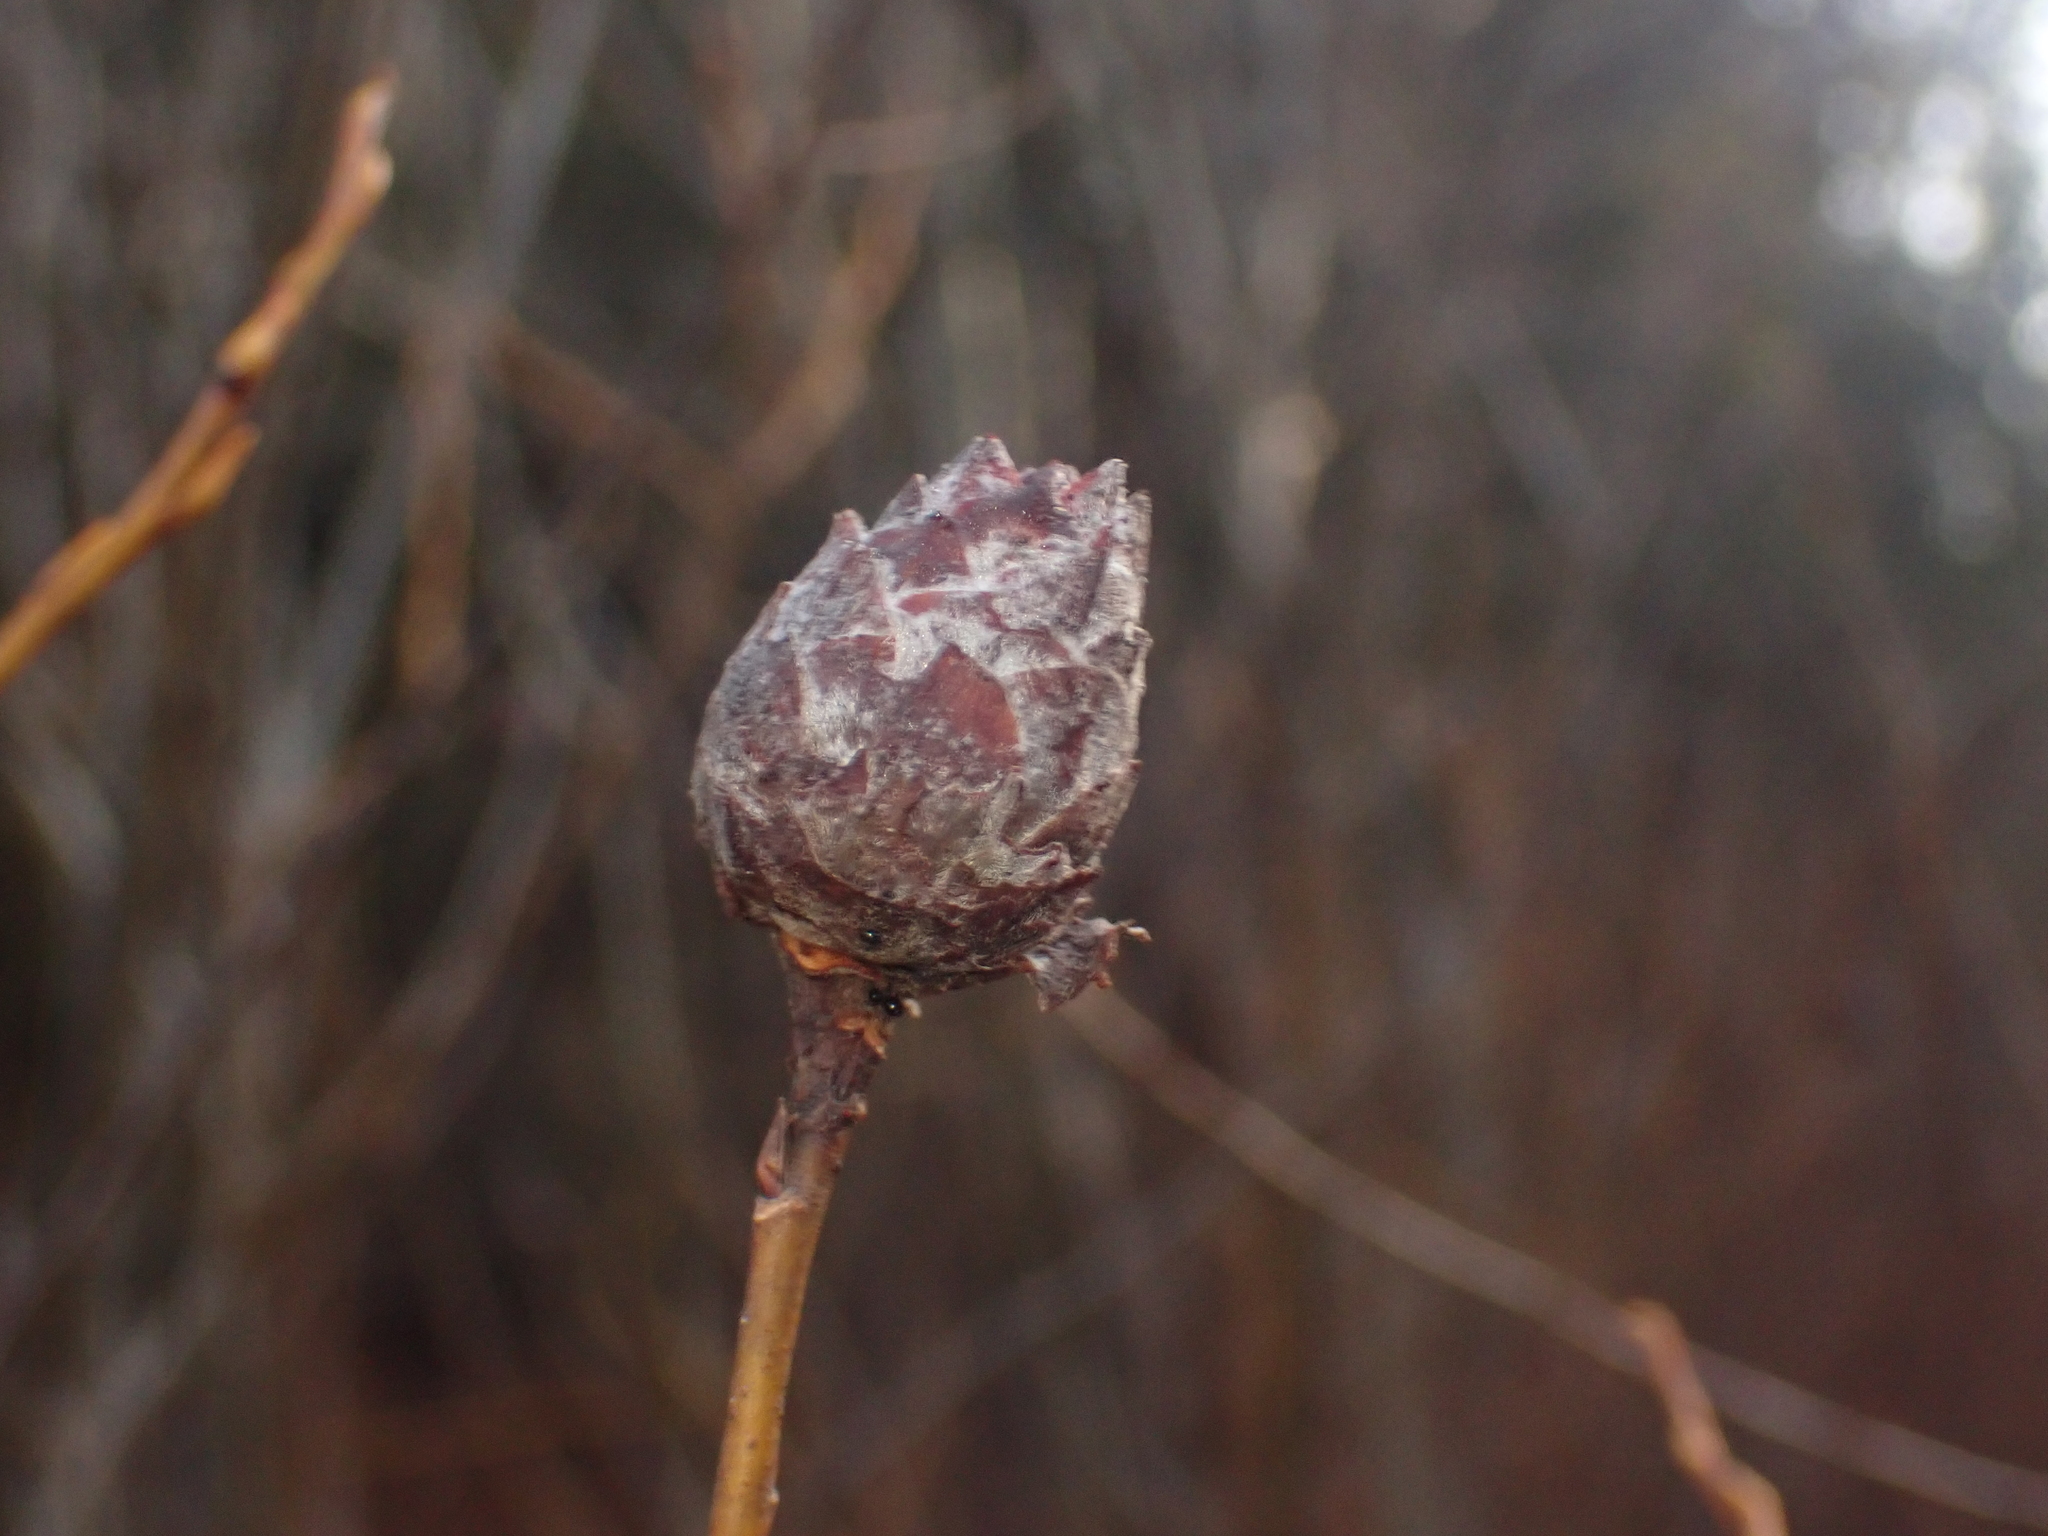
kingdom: Animalia
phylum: Arthropoda
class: Insecta
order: Diptera
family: Cecidomyiidae
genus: Rabdophaga
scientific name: Rabdophaga strobiloides
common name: Willow pinecone gall midge
